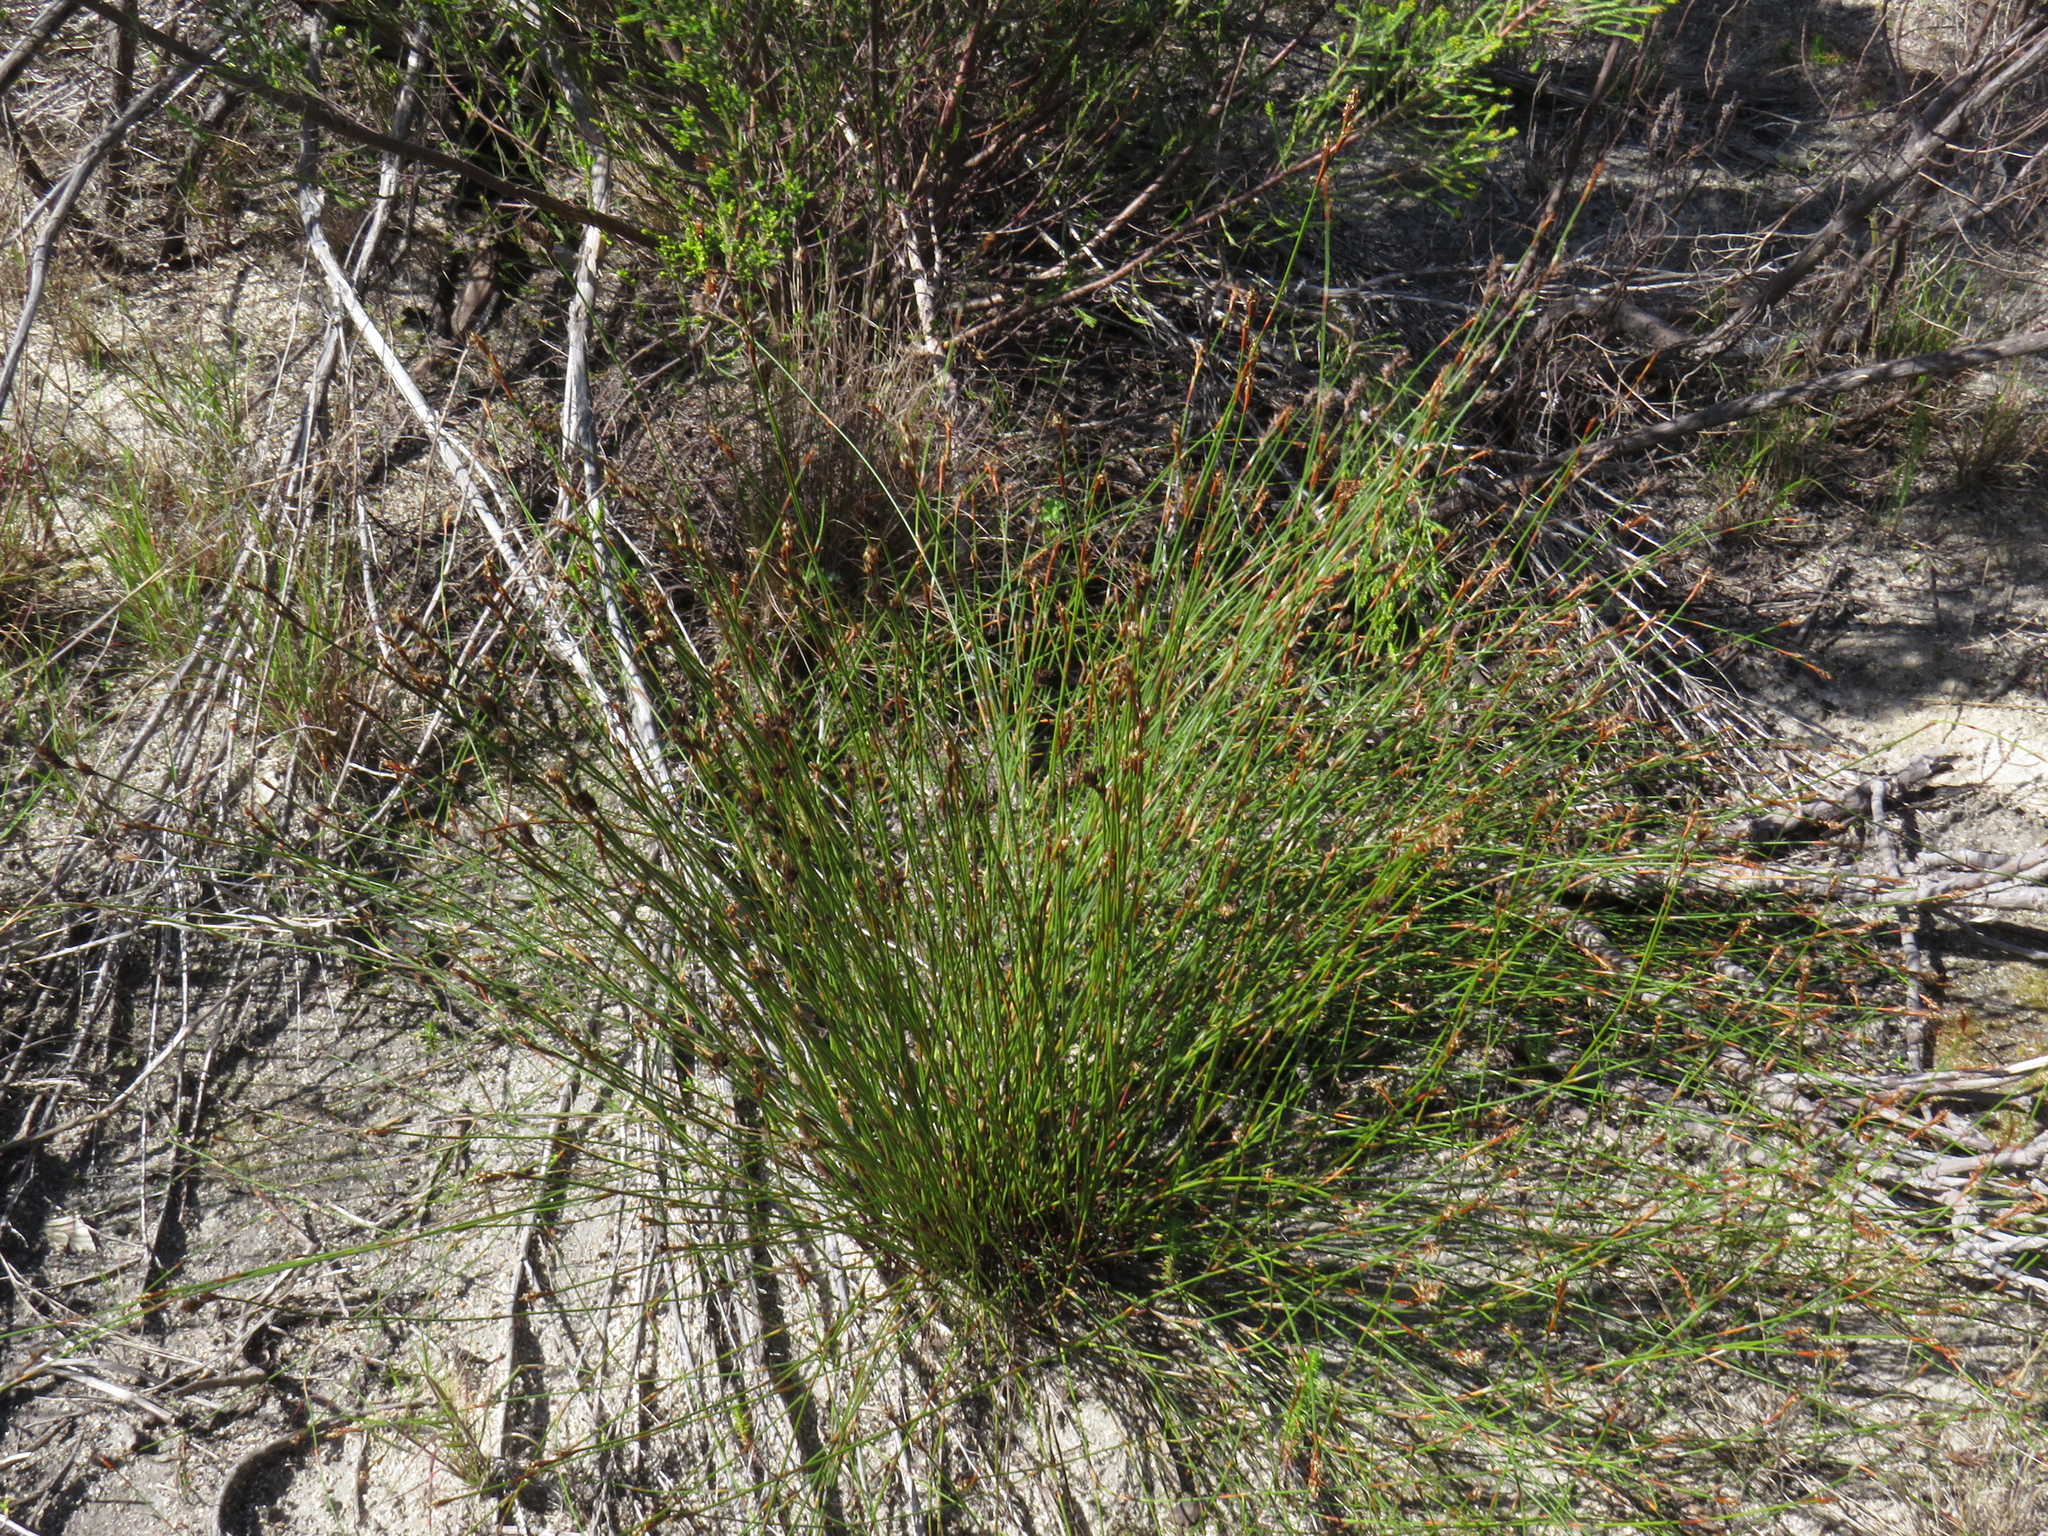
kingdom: Plantae
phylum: Tracheophyta
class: Liliopsida
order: Poales
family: Restionaceae
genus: Restio
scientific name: Restio filiformis
